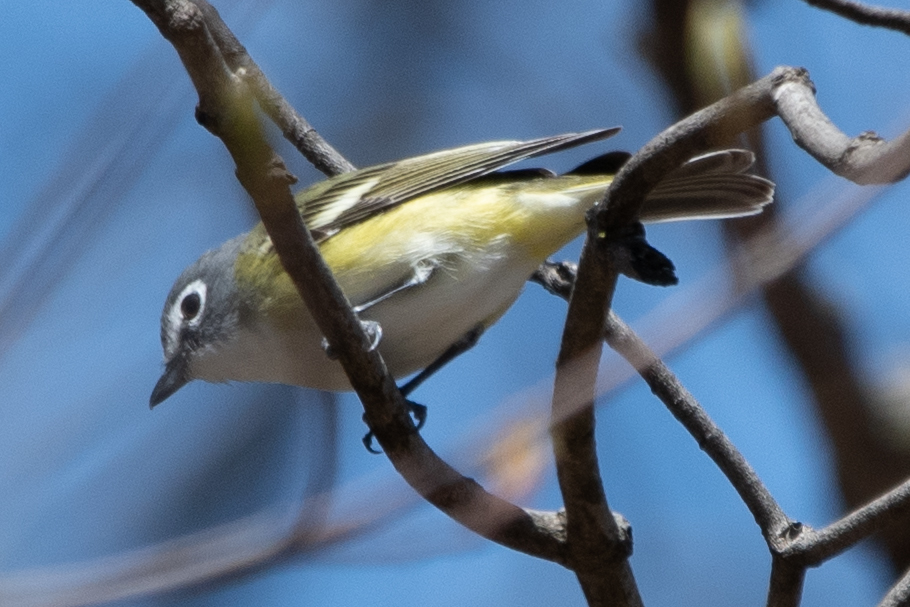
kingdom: Animalia
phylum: Chordata
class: Aves
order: Passeriformes
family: Vireonidae
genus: Vireo
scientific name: Vireo solitarius
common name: Blue-headed vireo
